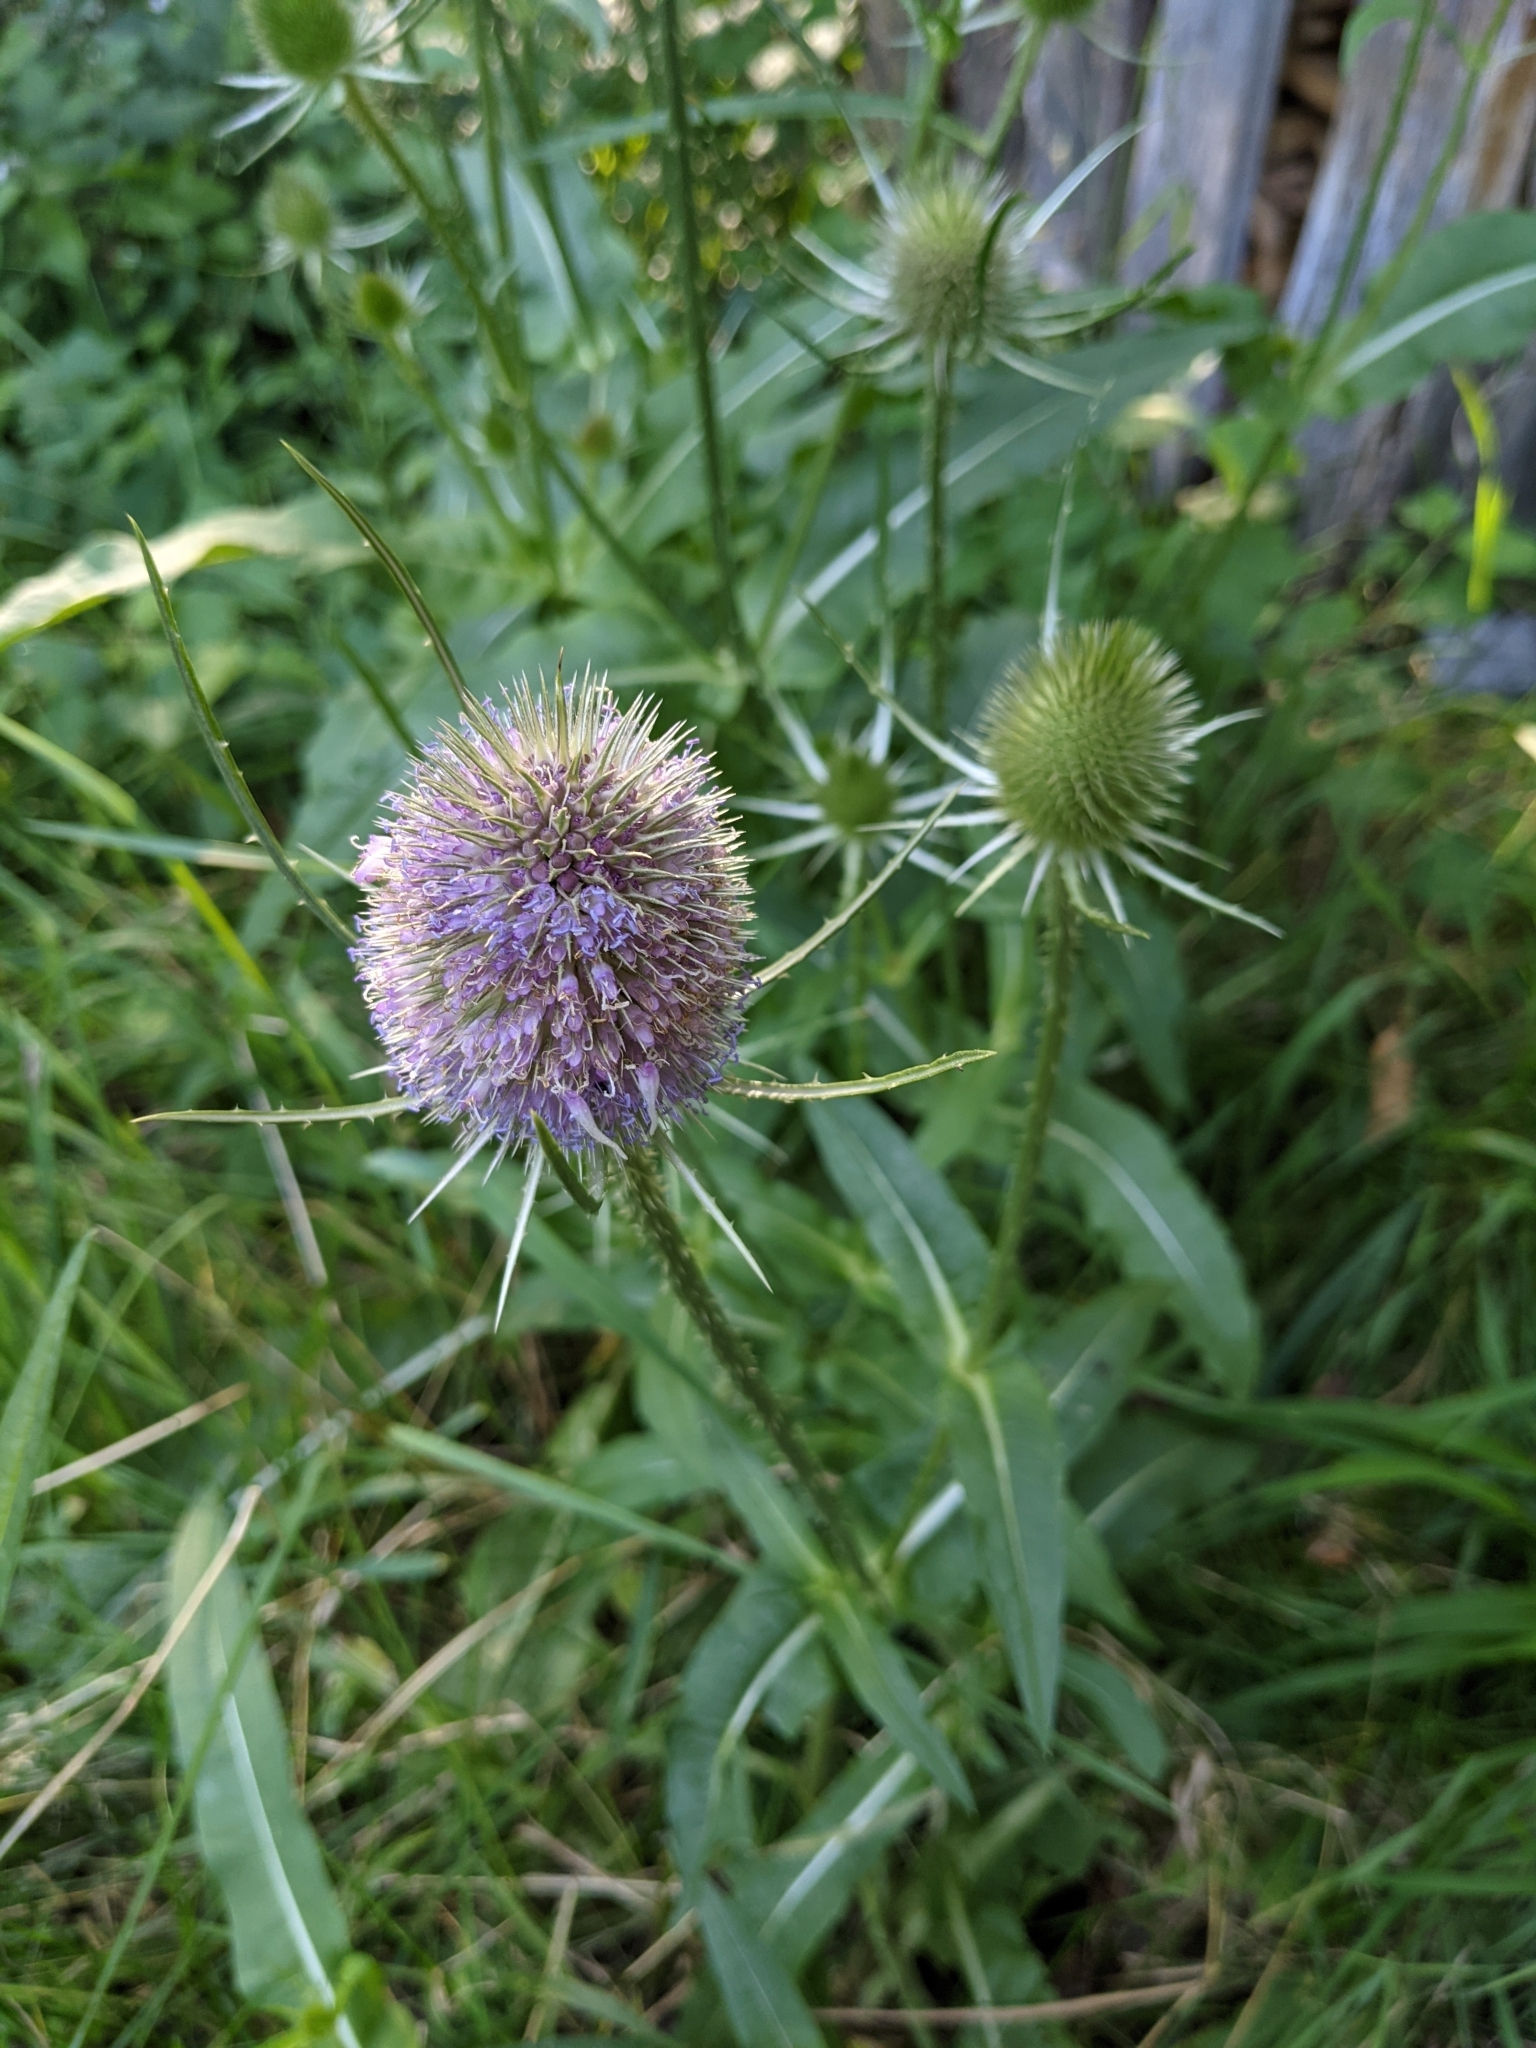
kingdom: Plantae
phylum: Tracheophyta
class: Magnoliopsida
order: Dipsacales
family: Caprifoliaceae
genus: Dipsacus
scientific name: Dipsacus fullonum
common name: Teasel
